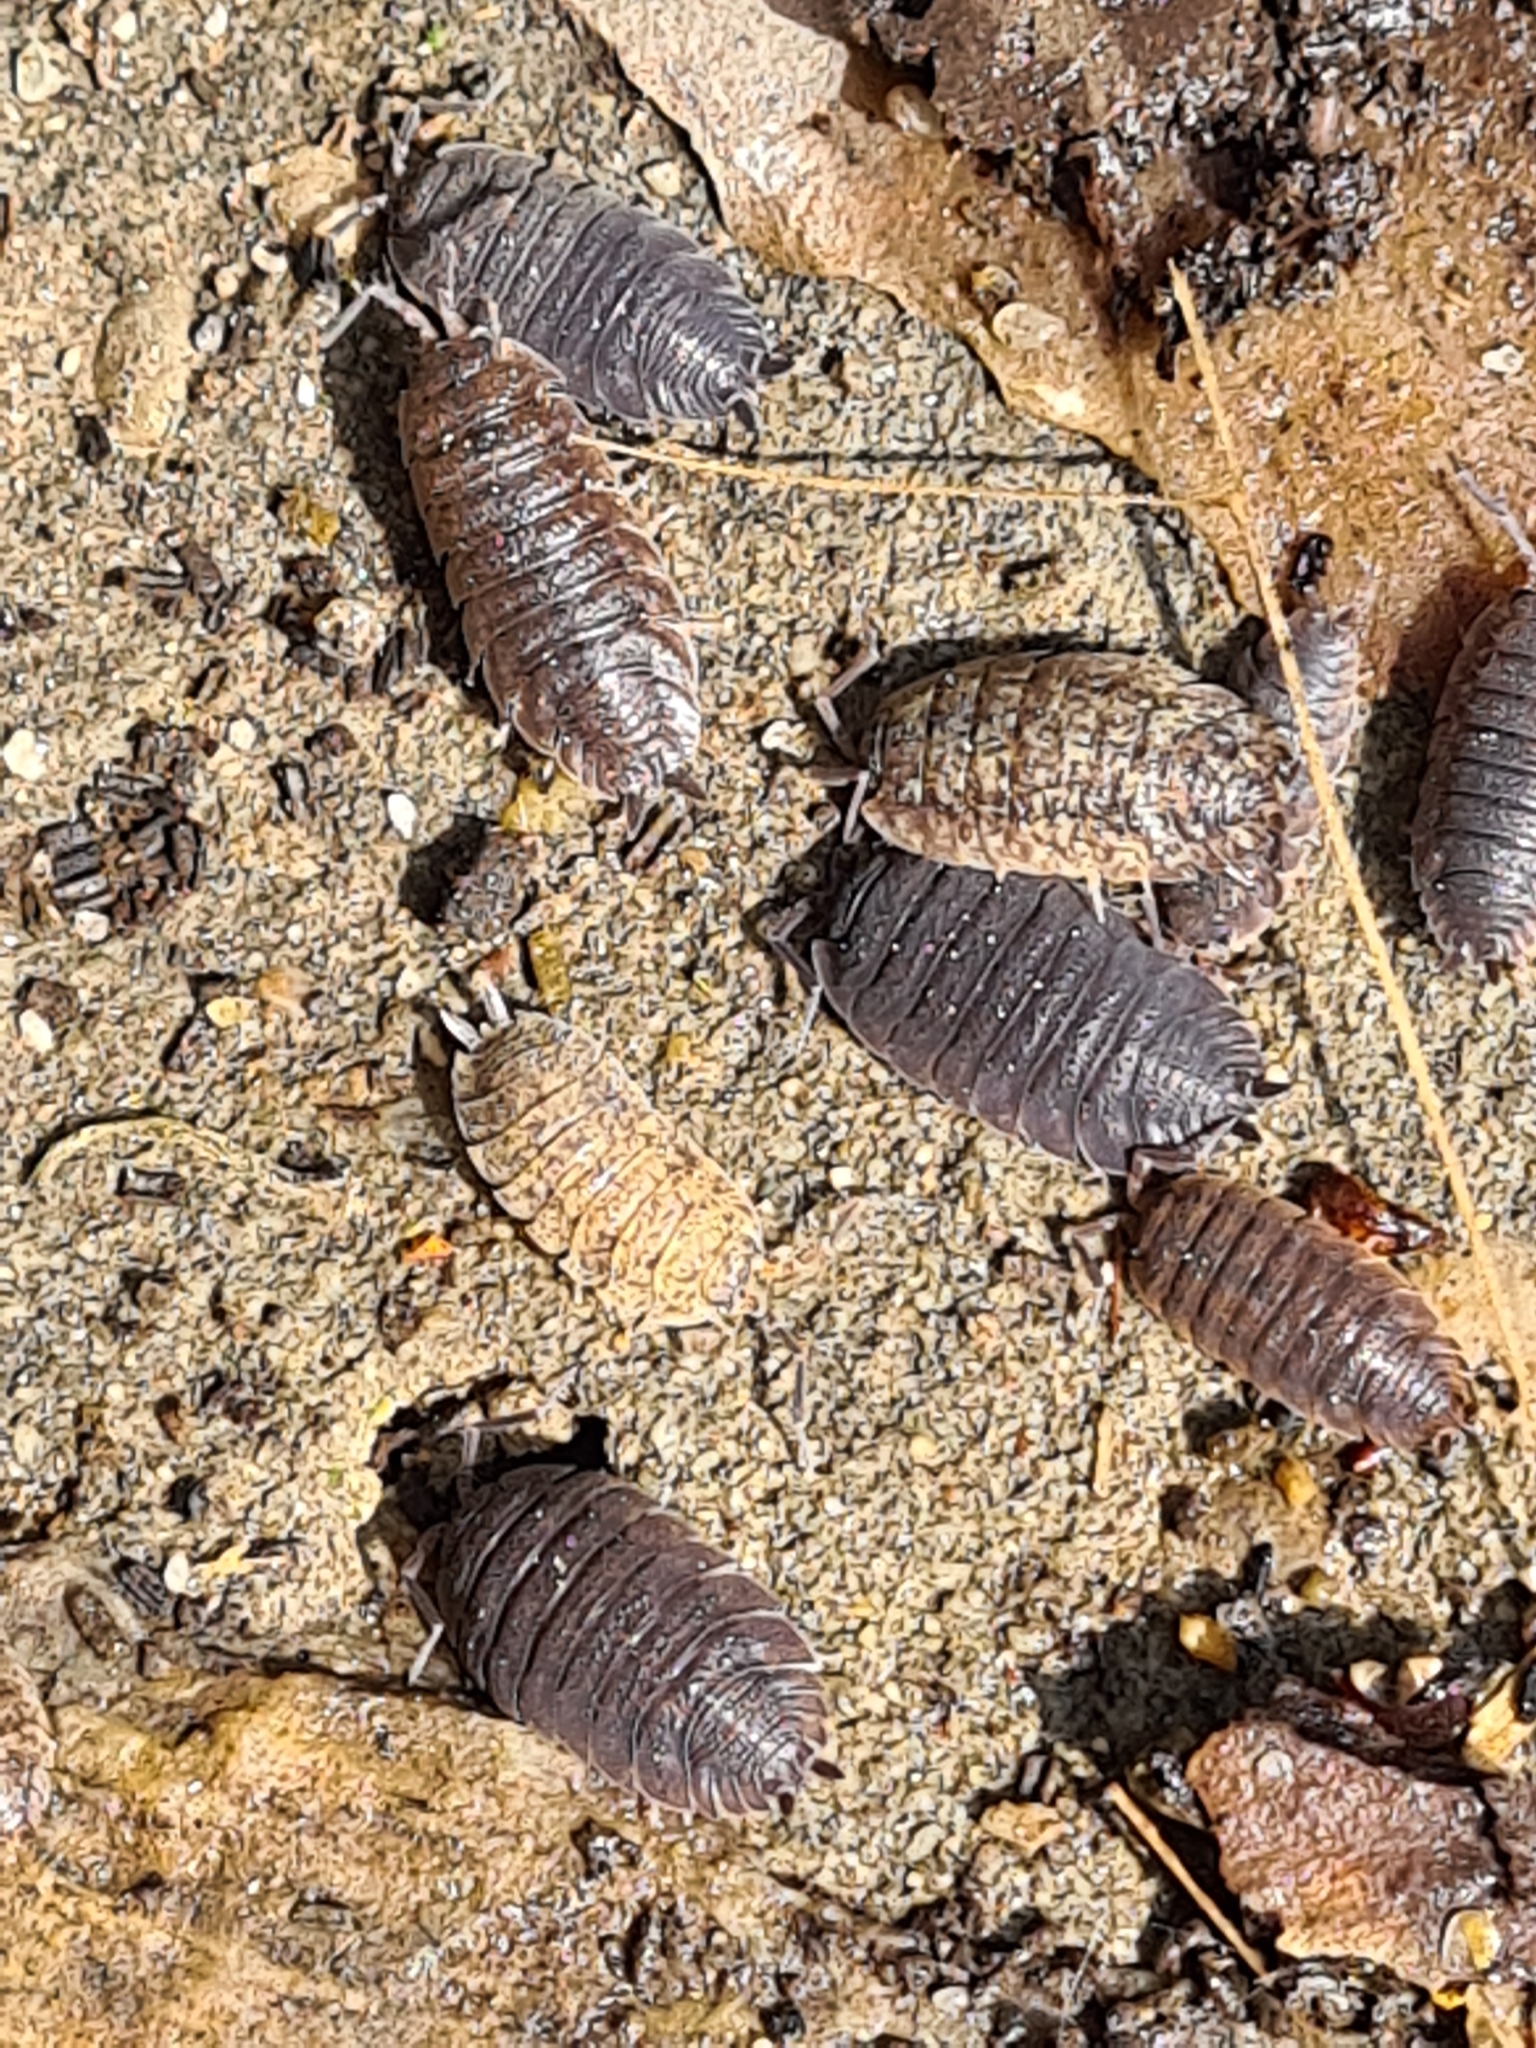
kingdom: Animalia
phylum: Arthropoda
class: Malacostraca
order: Isopoda
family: Porcellionidae
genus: Porcellio
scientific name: Porcellio scaber
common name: Common rough woodlouse
